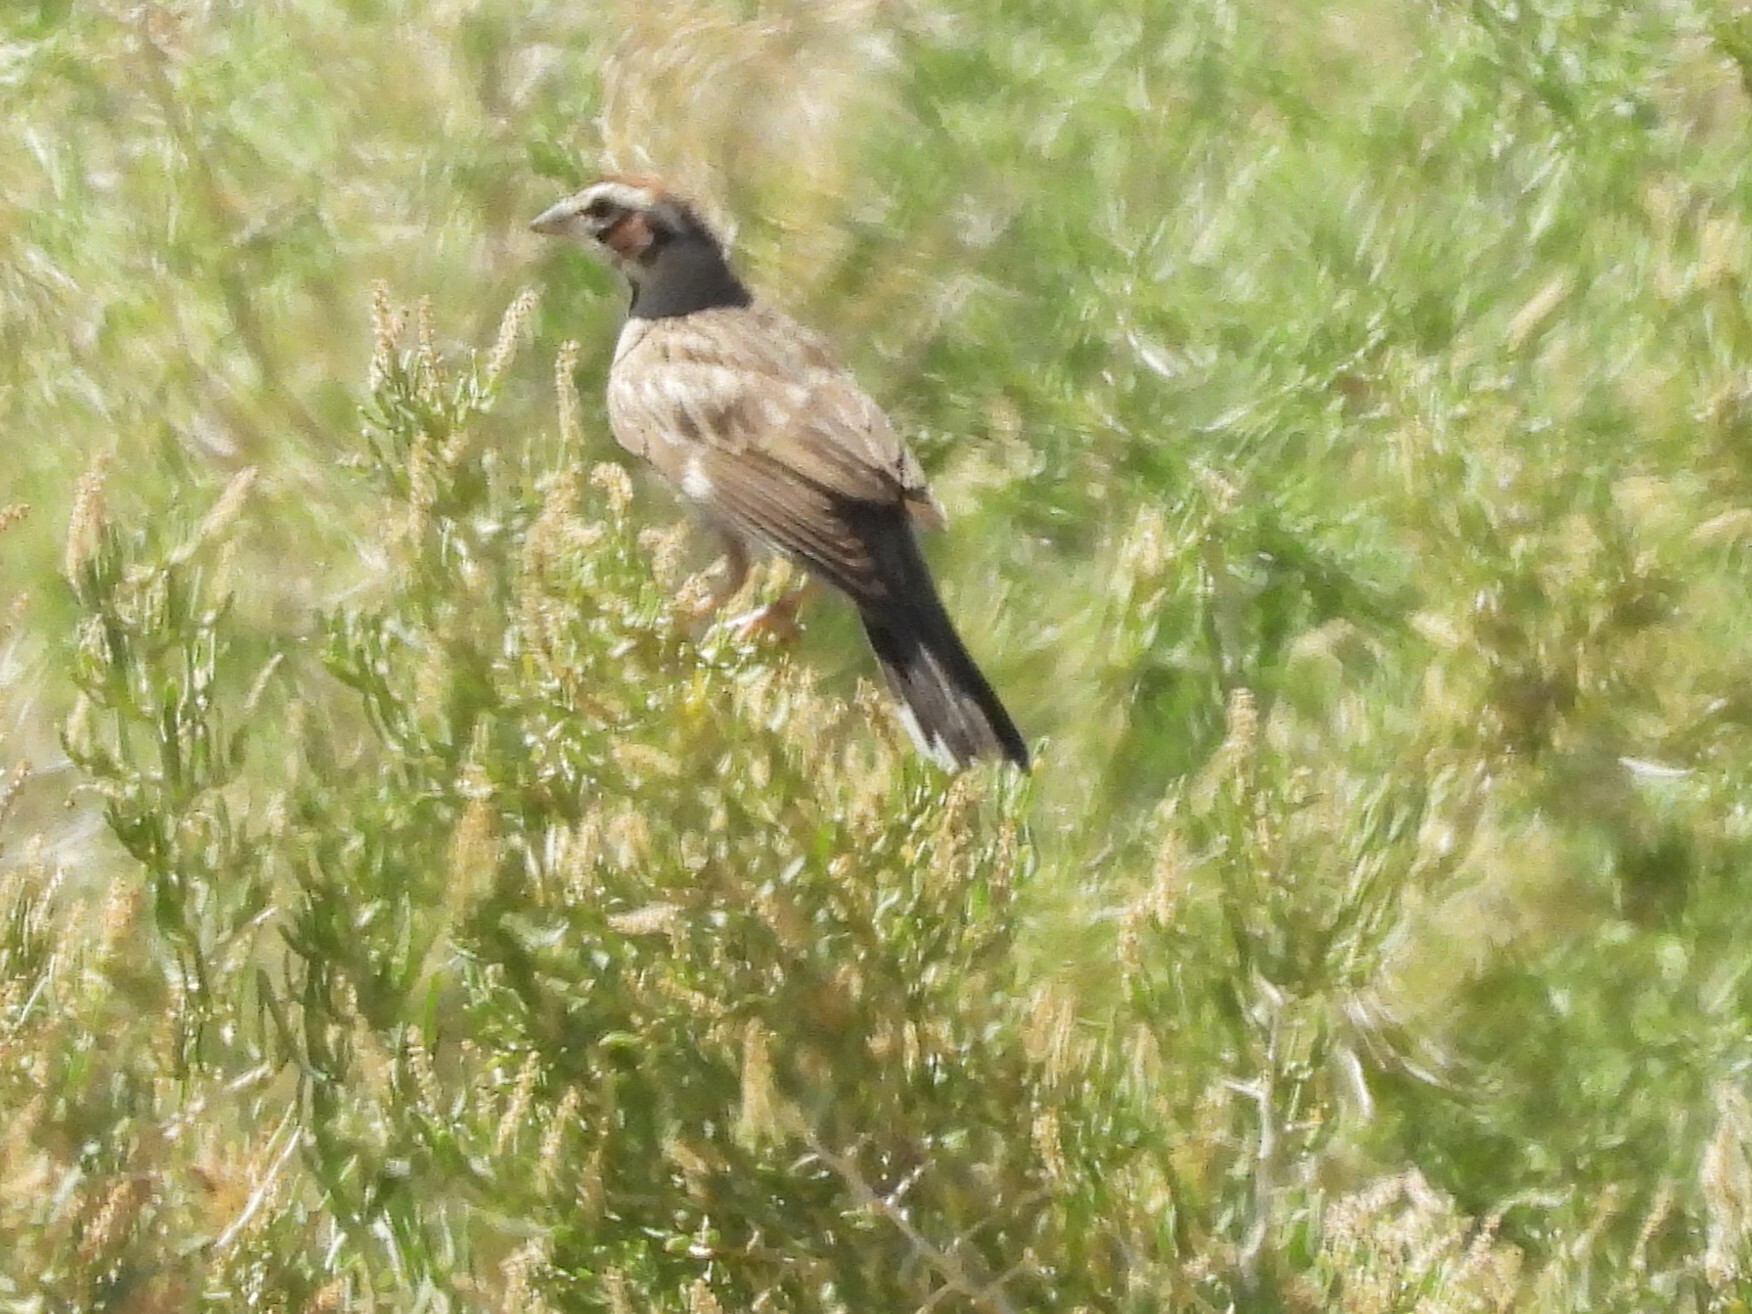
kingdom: Animalia
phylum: Chordata
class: Aves
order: Passeriformes
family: Passerellidae
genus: Chondestes
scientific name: Chondestes grammacus
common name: Lark sparrow
